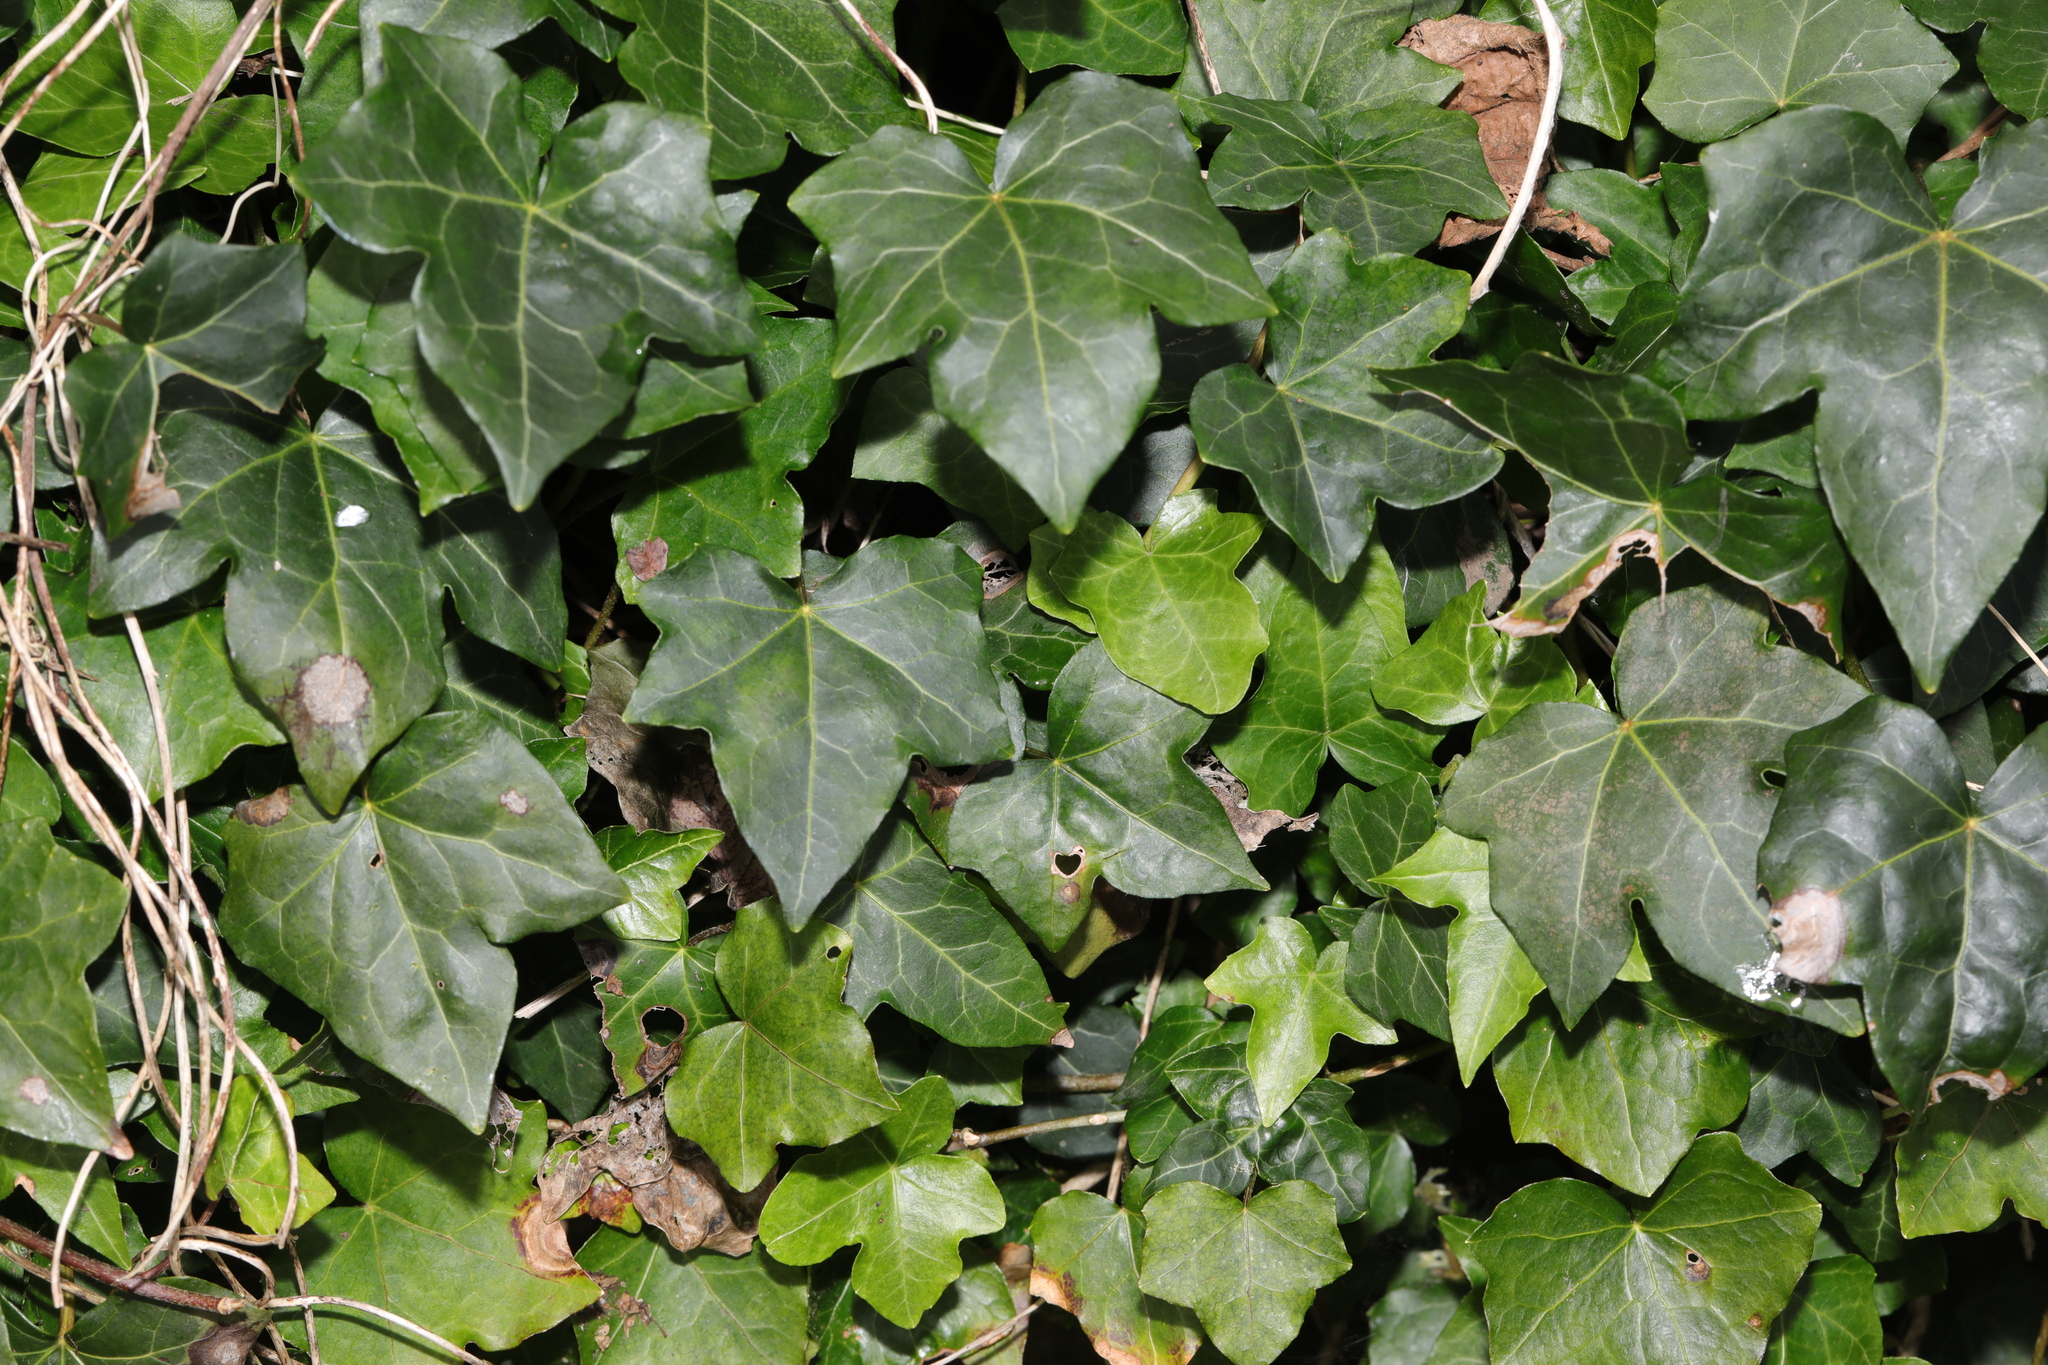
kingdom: Plantae
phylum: Tracheophyta
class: Magnoliopsida
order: Apiales
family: Araliaceae
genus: Hedera
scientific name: Hedera helix
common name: Ivy
